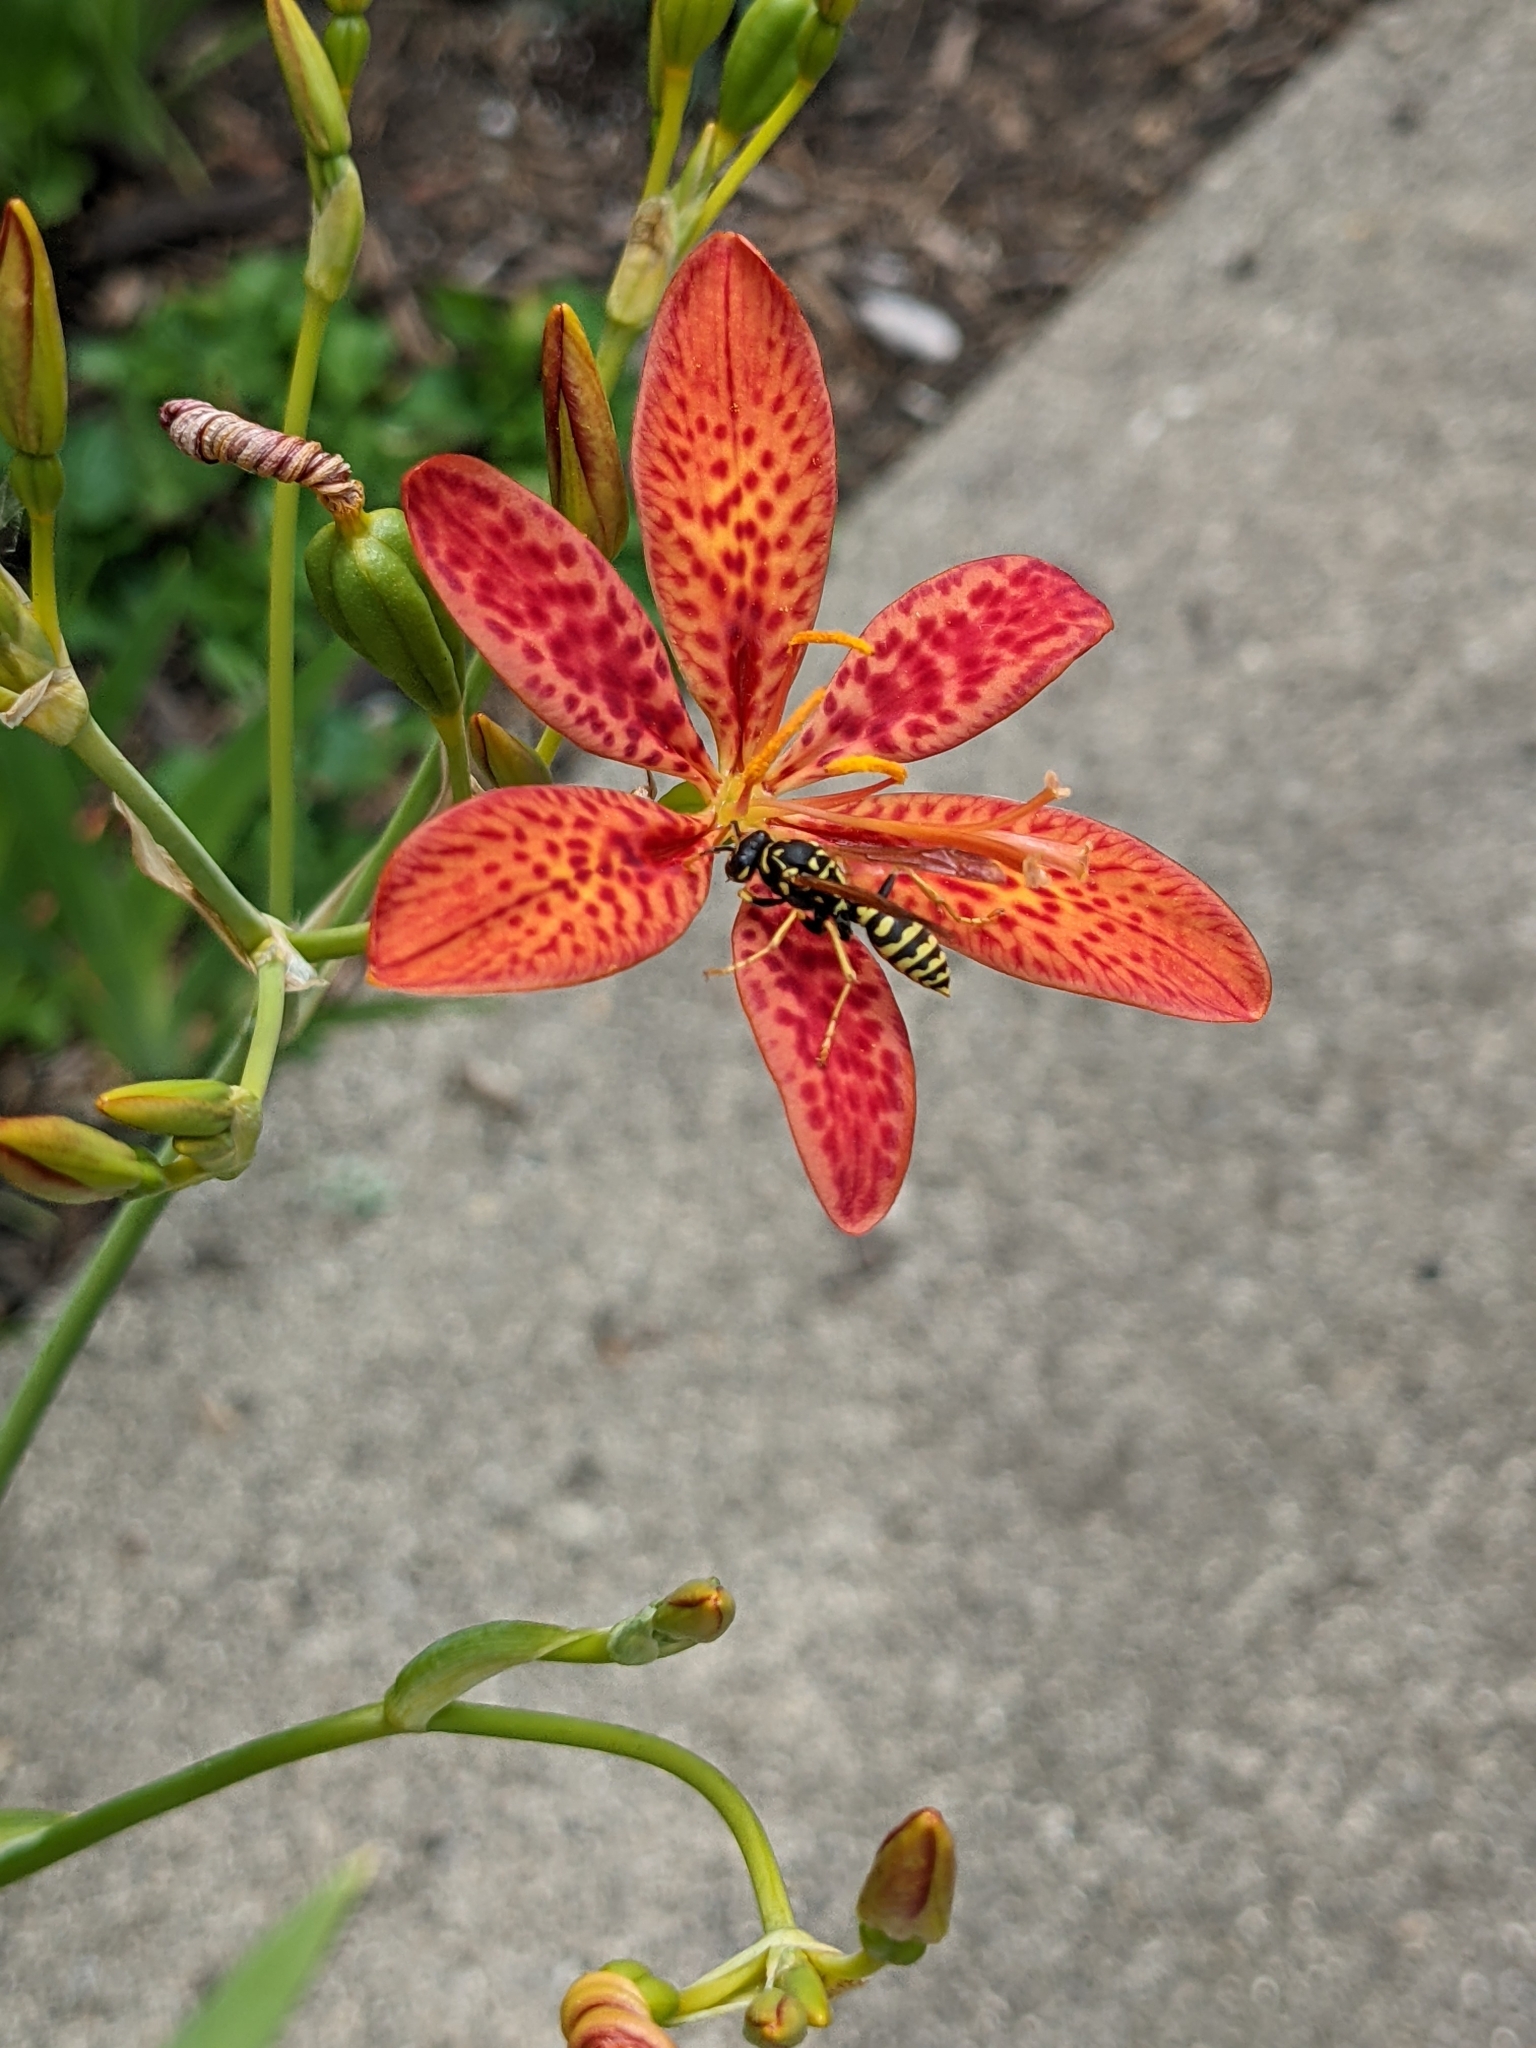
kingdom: Animalia
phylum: Arthropoda
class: Insecta
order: Hymenoptera
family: Eumenidae
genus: Polistes
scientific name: Polistes dominula
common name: Paper wasp
